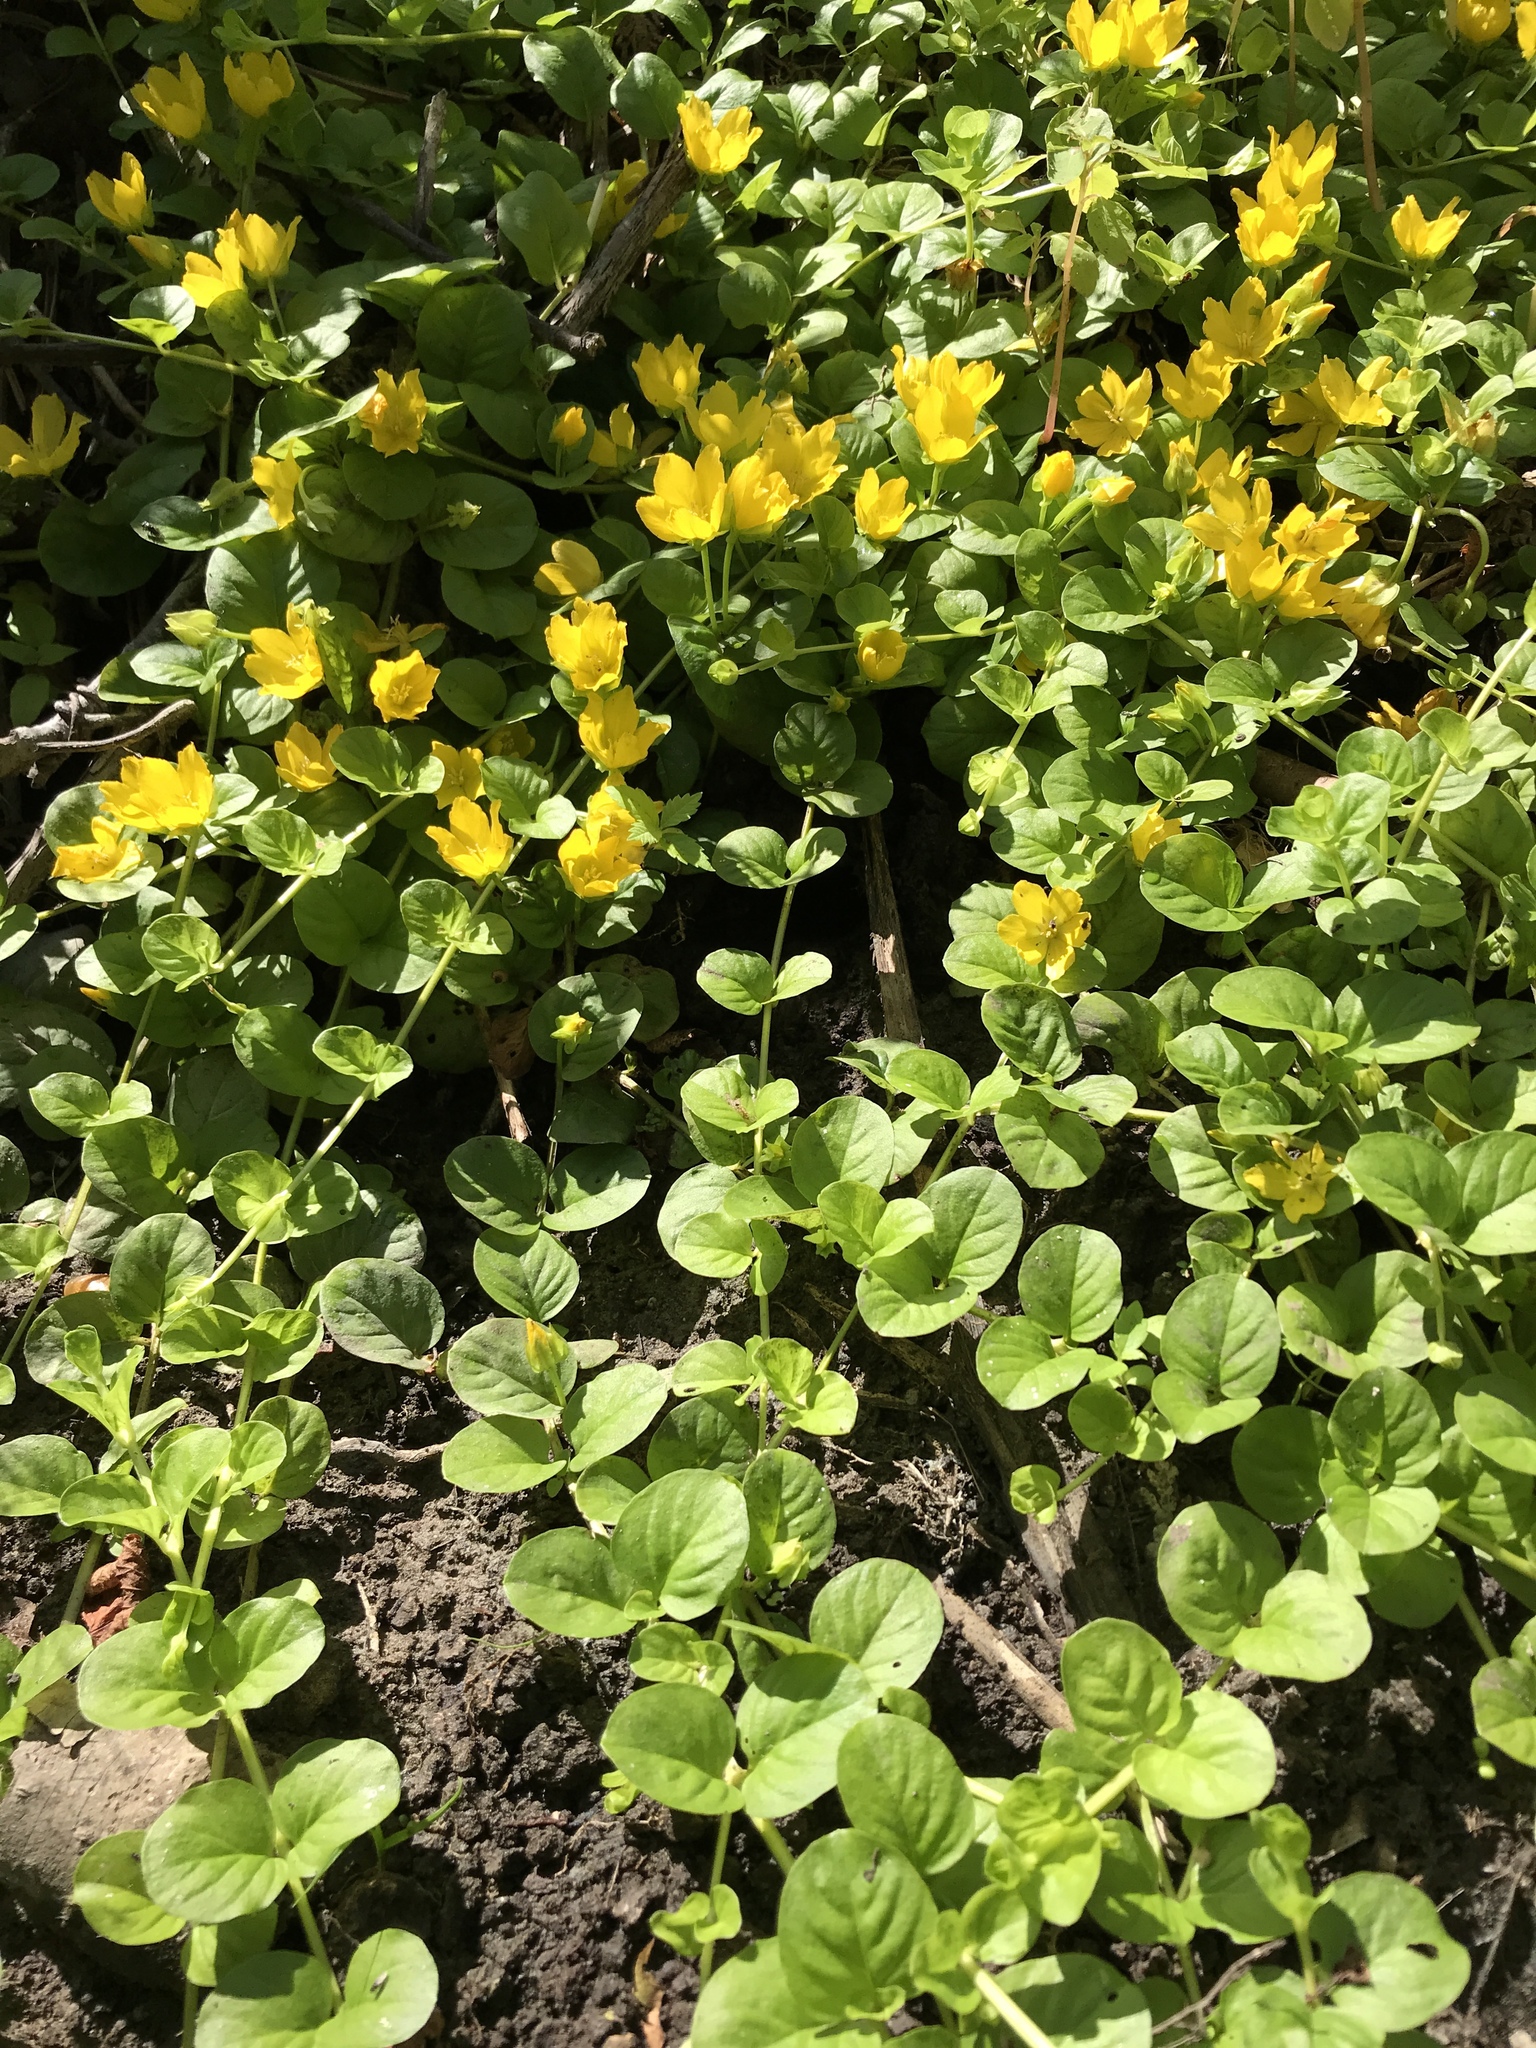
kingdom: Plantae
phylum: Tracheophyta
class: Magnoliopsida
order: Ericales
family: Primulaceae
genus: Lysimachia
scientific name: Lysimachia nummularia
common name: Moneywort
